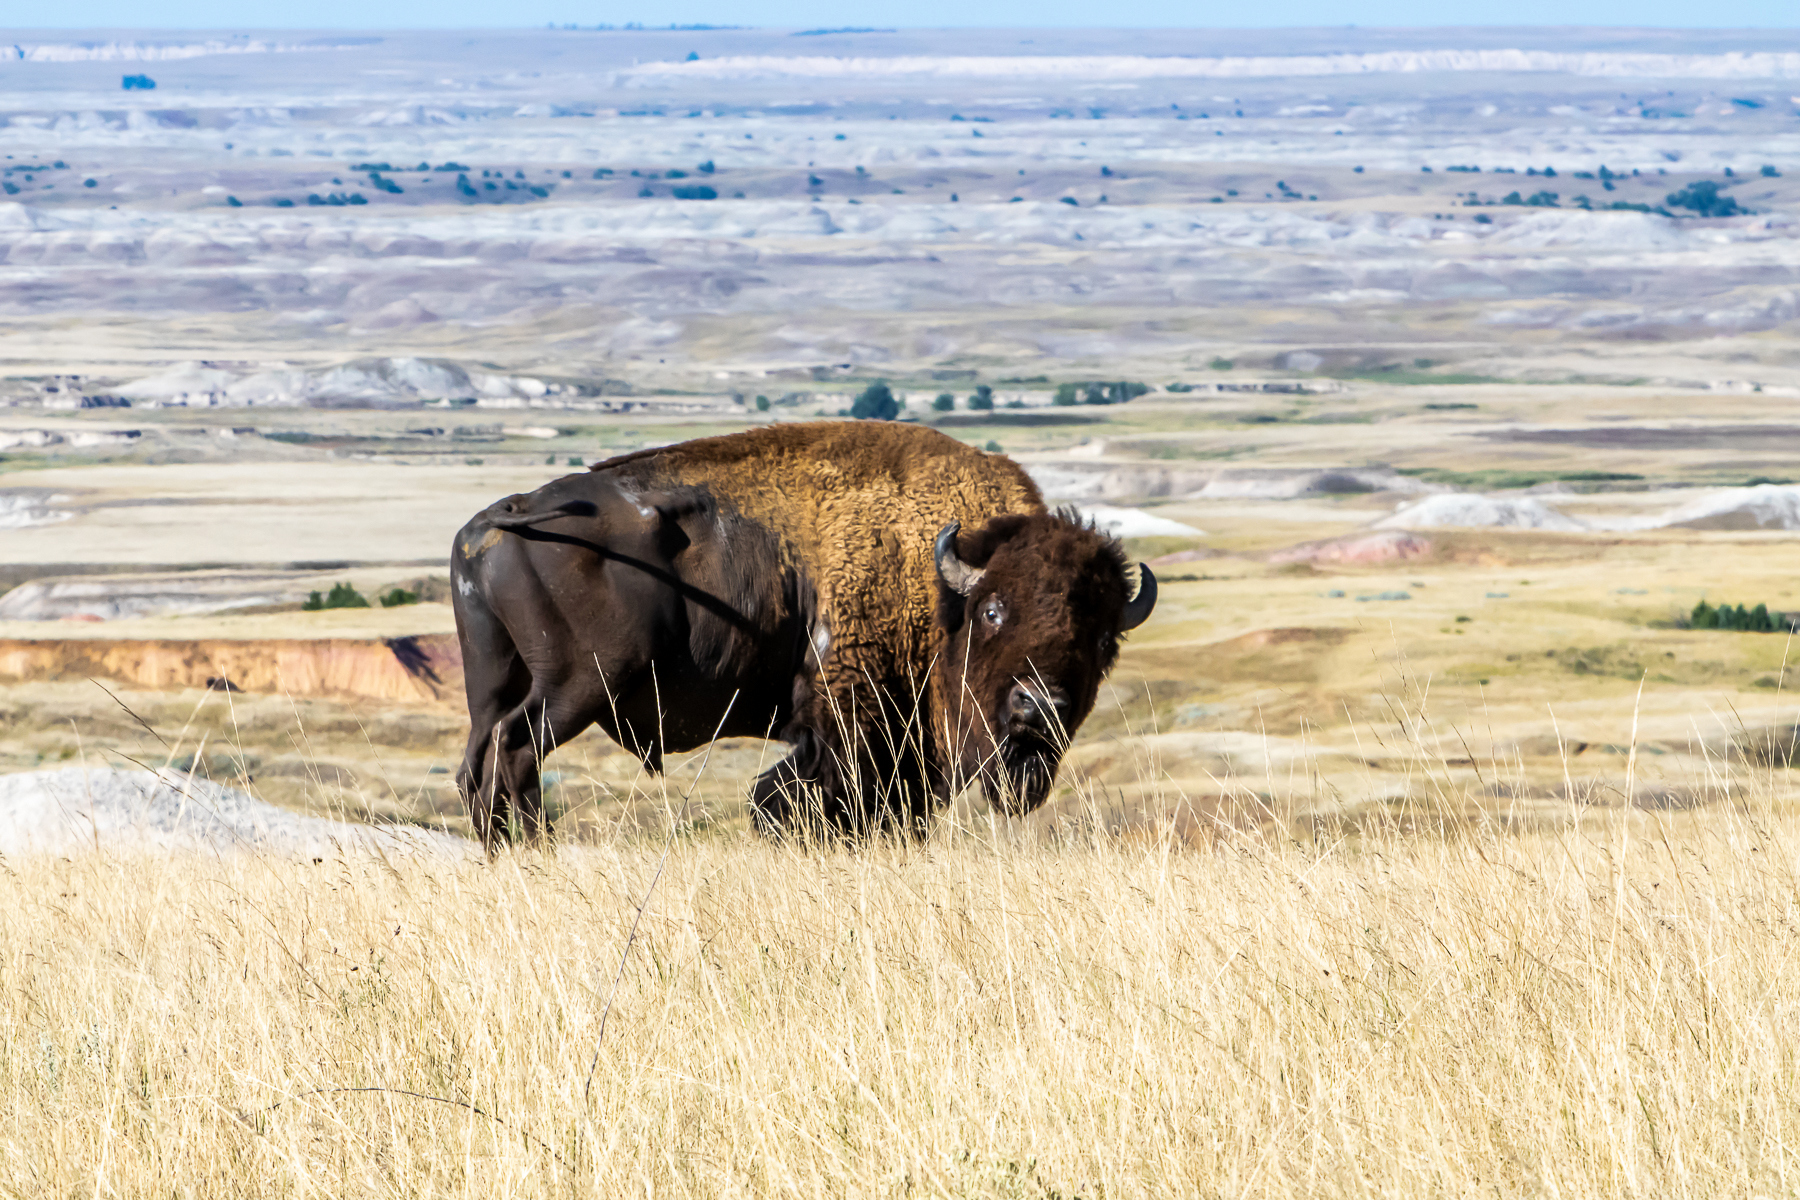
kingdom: Animalia
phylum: Chordata
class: Mammalia
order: Artiodactyla
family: Bovidae
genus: Bison
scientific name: Bison bison
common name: American bison
